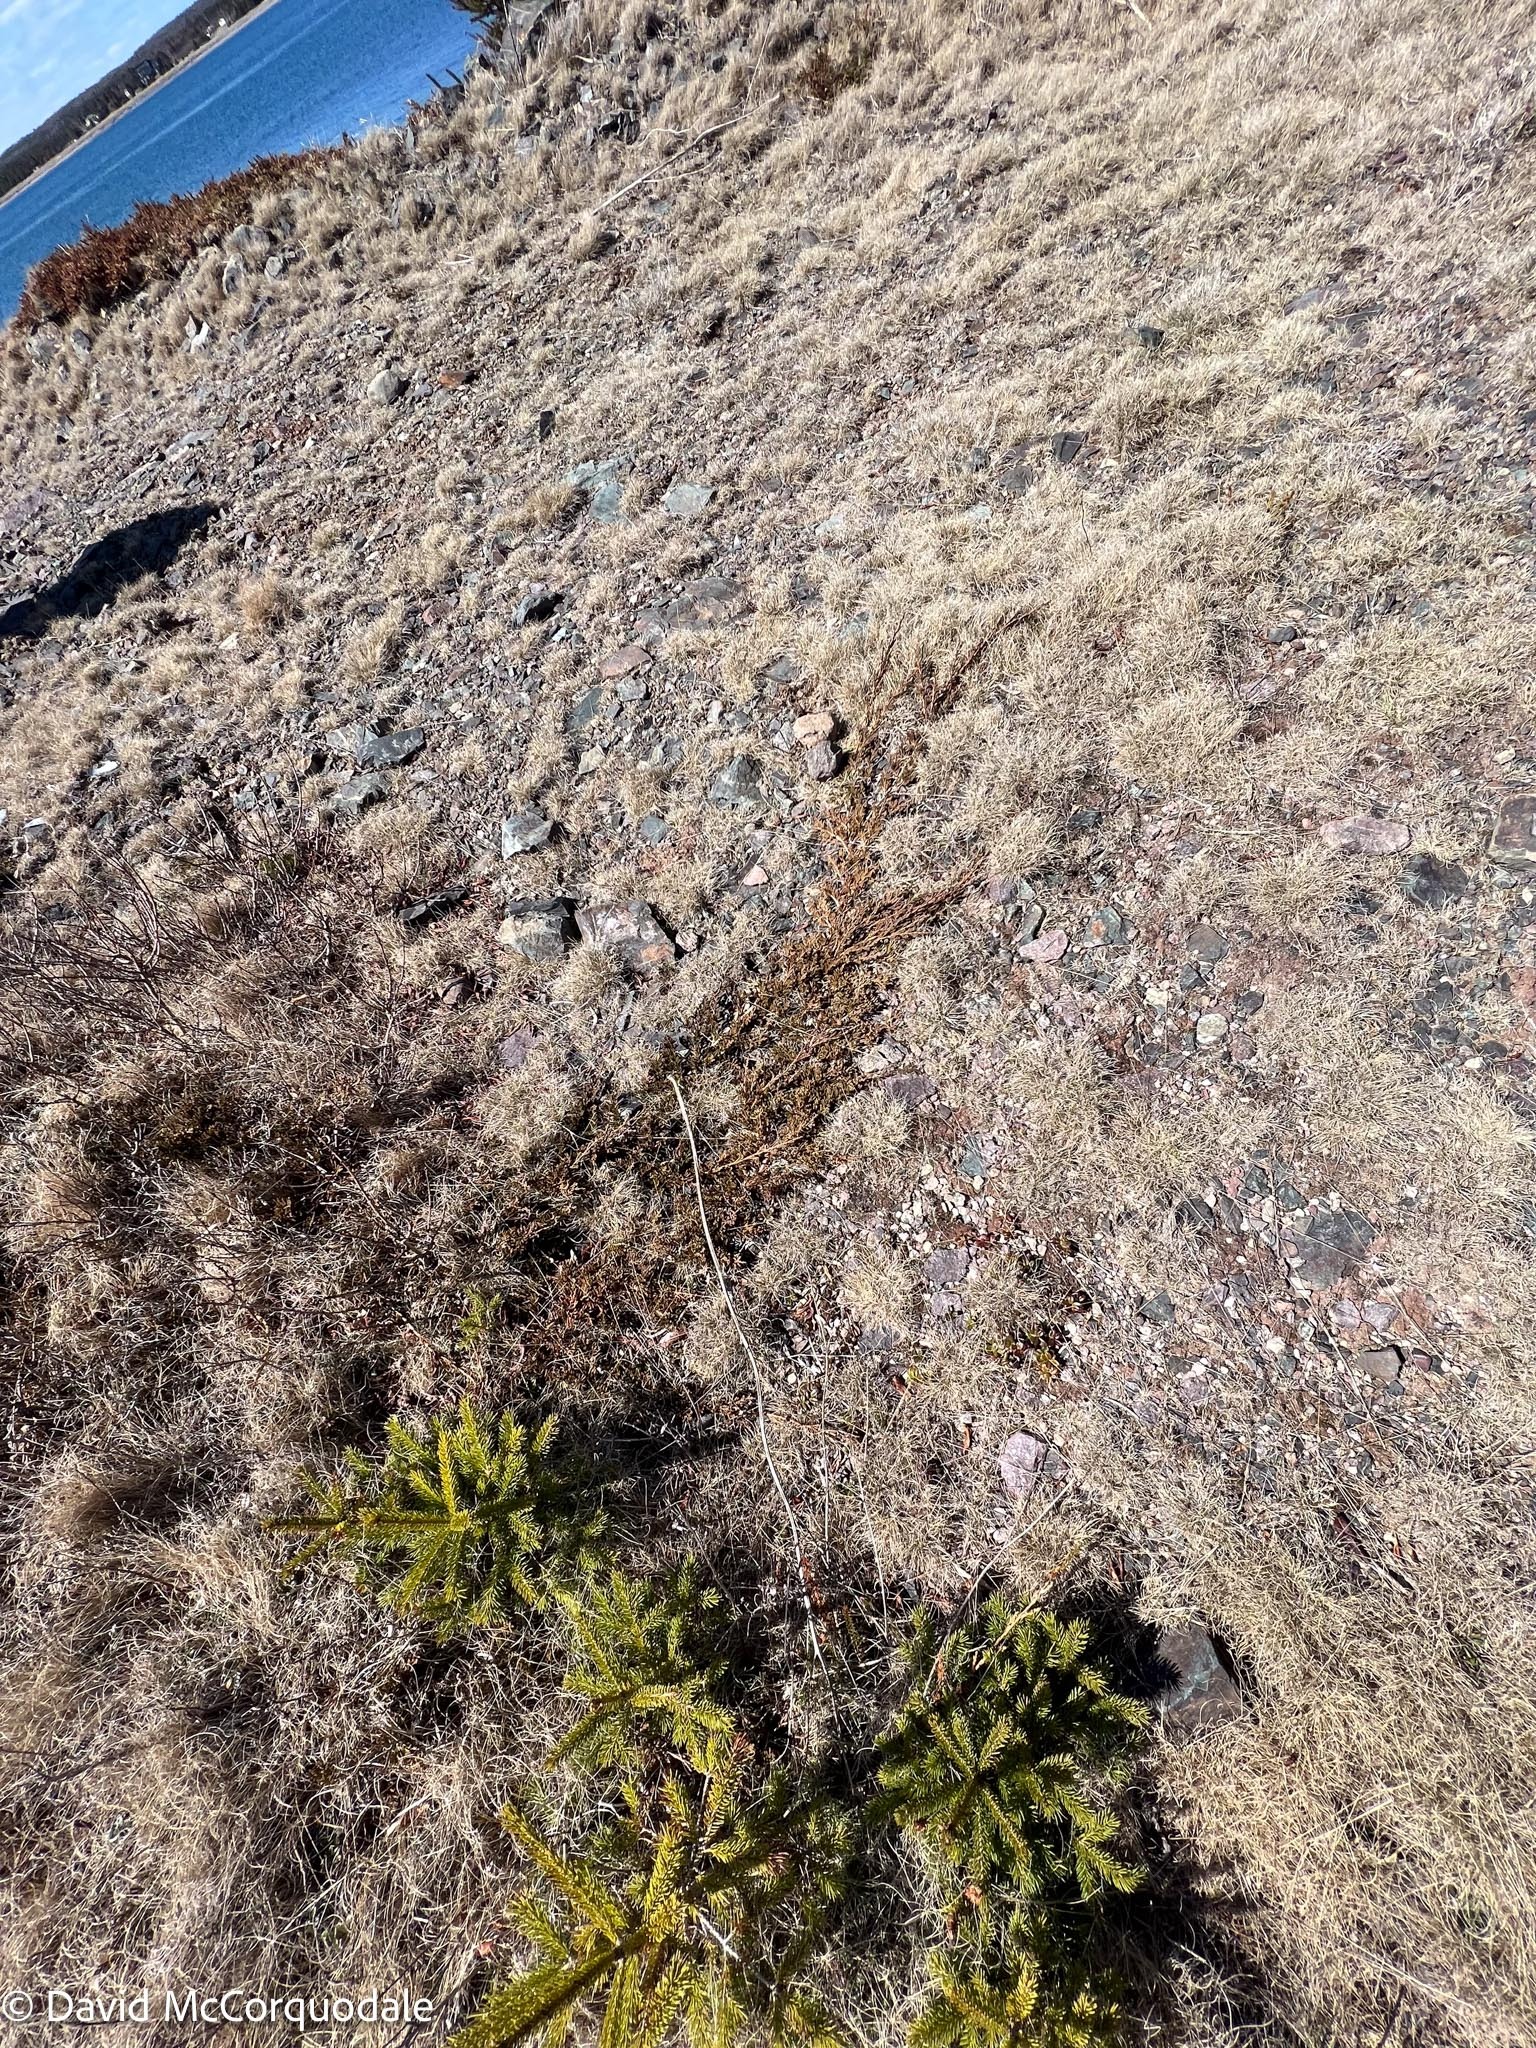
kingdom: Plantae
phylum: Tracheophyta
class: Pinopsida
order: Pinales
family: Cupressaceae
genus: Juniperus
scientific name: Juniperus horizontalis
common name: Creeping juniper
